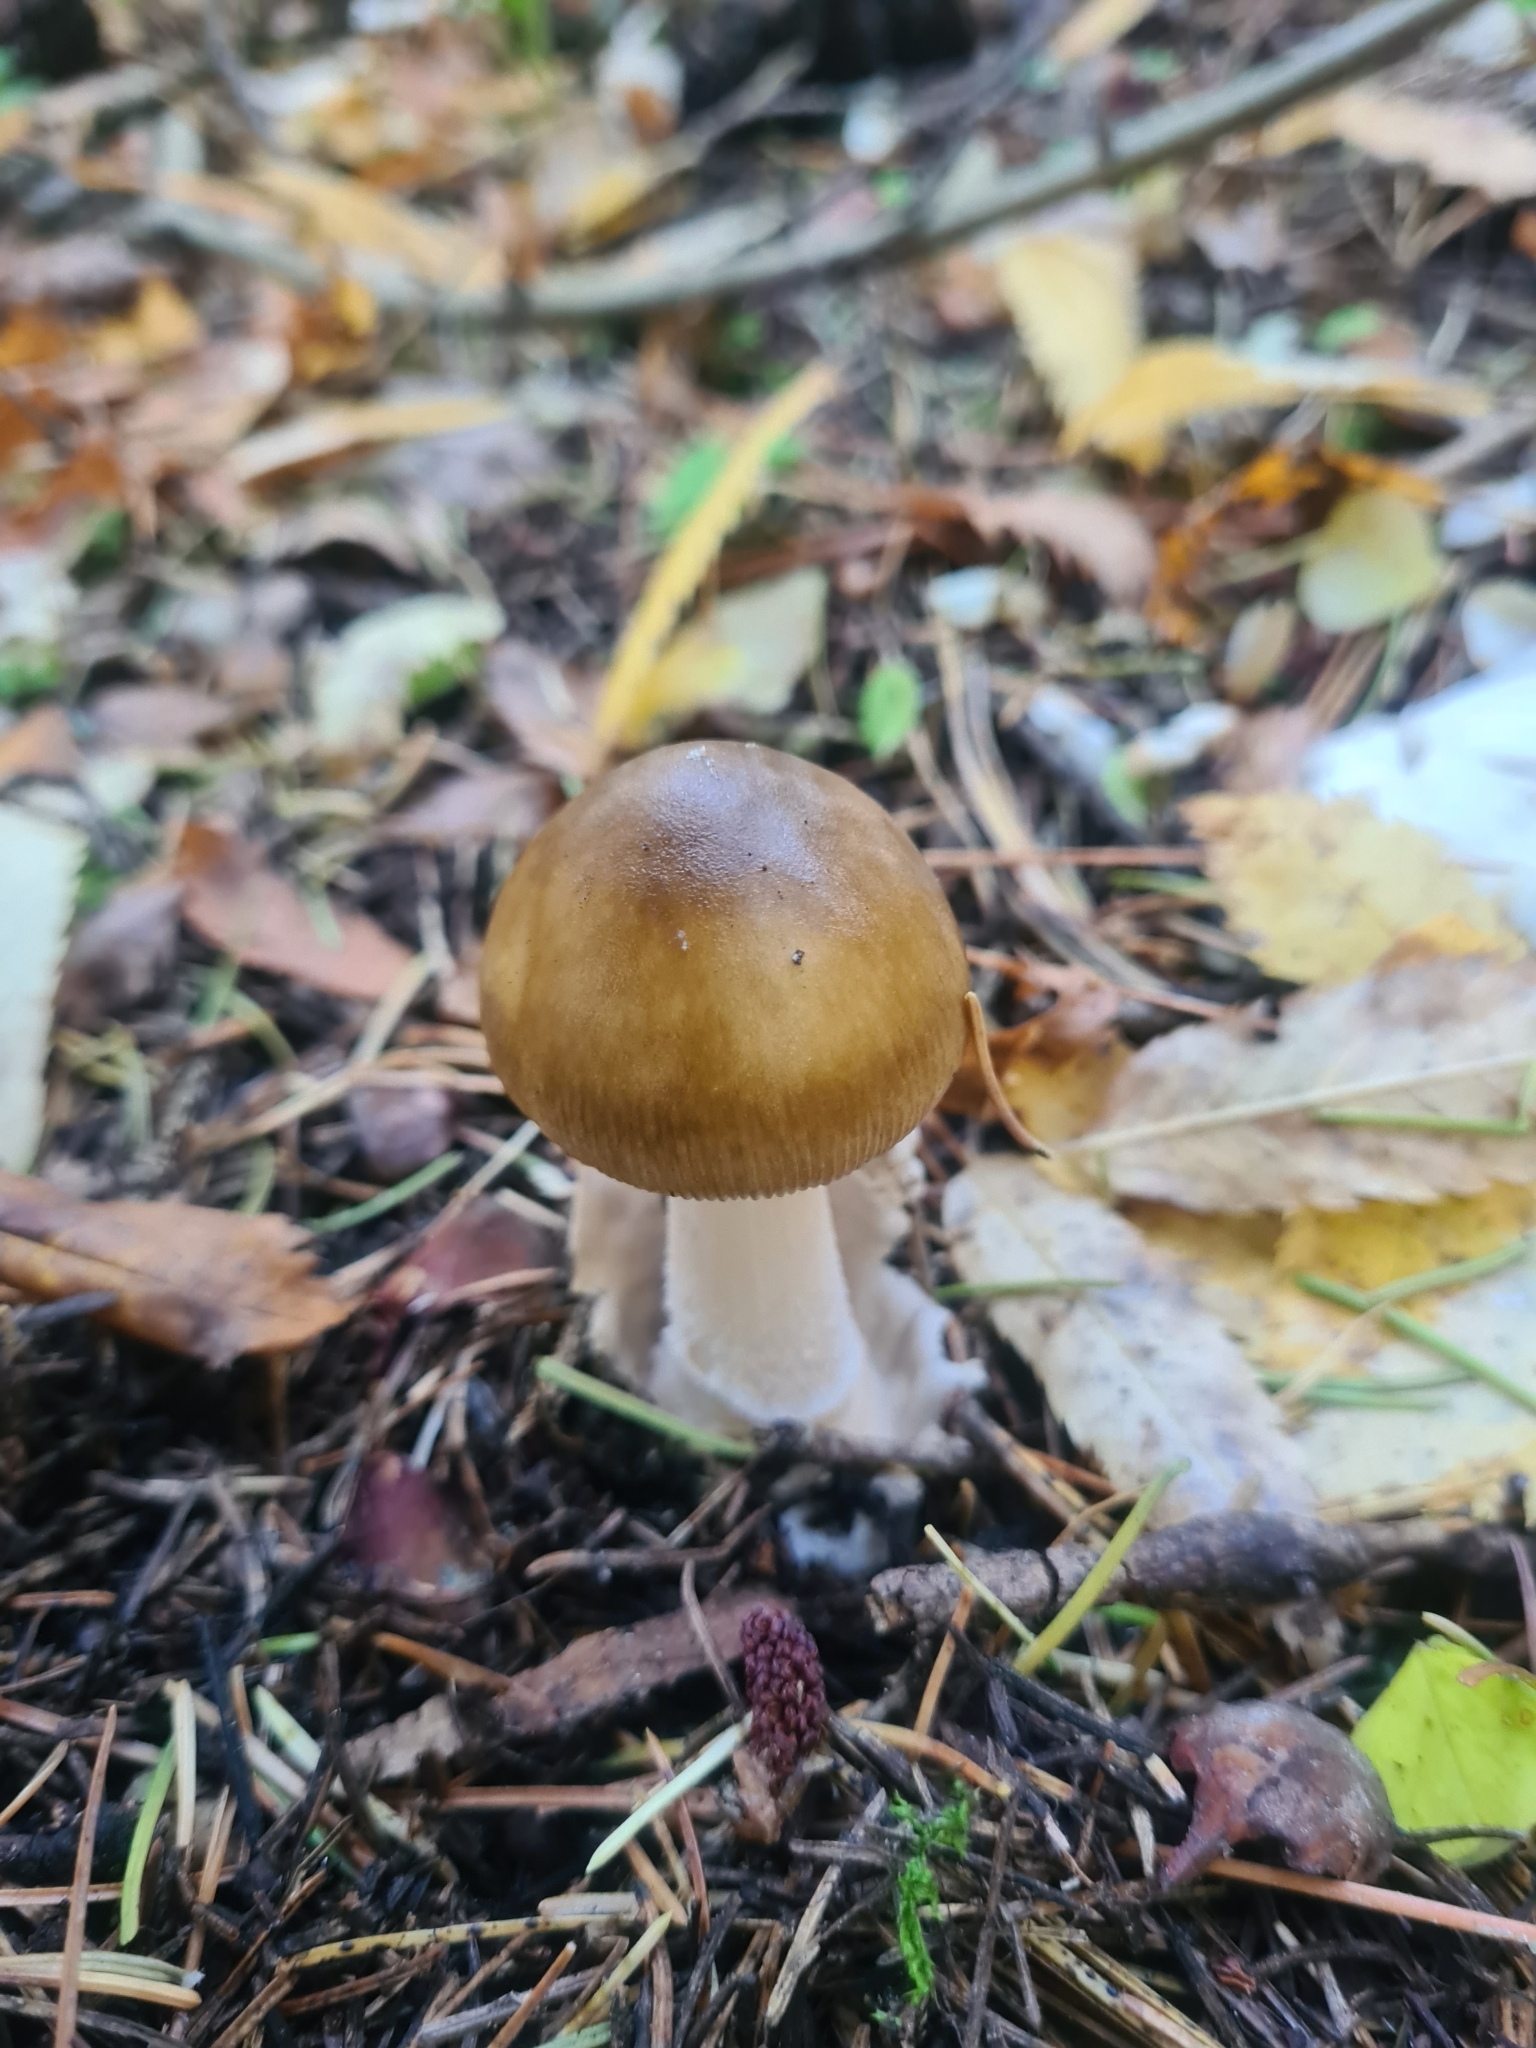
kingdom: Fungi
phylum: Basidiomycota
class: Agaricomycetes
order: Agaricales
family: Amanitaceae
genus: Amanita
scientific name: Amanita fulva
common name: Tawny grisette
